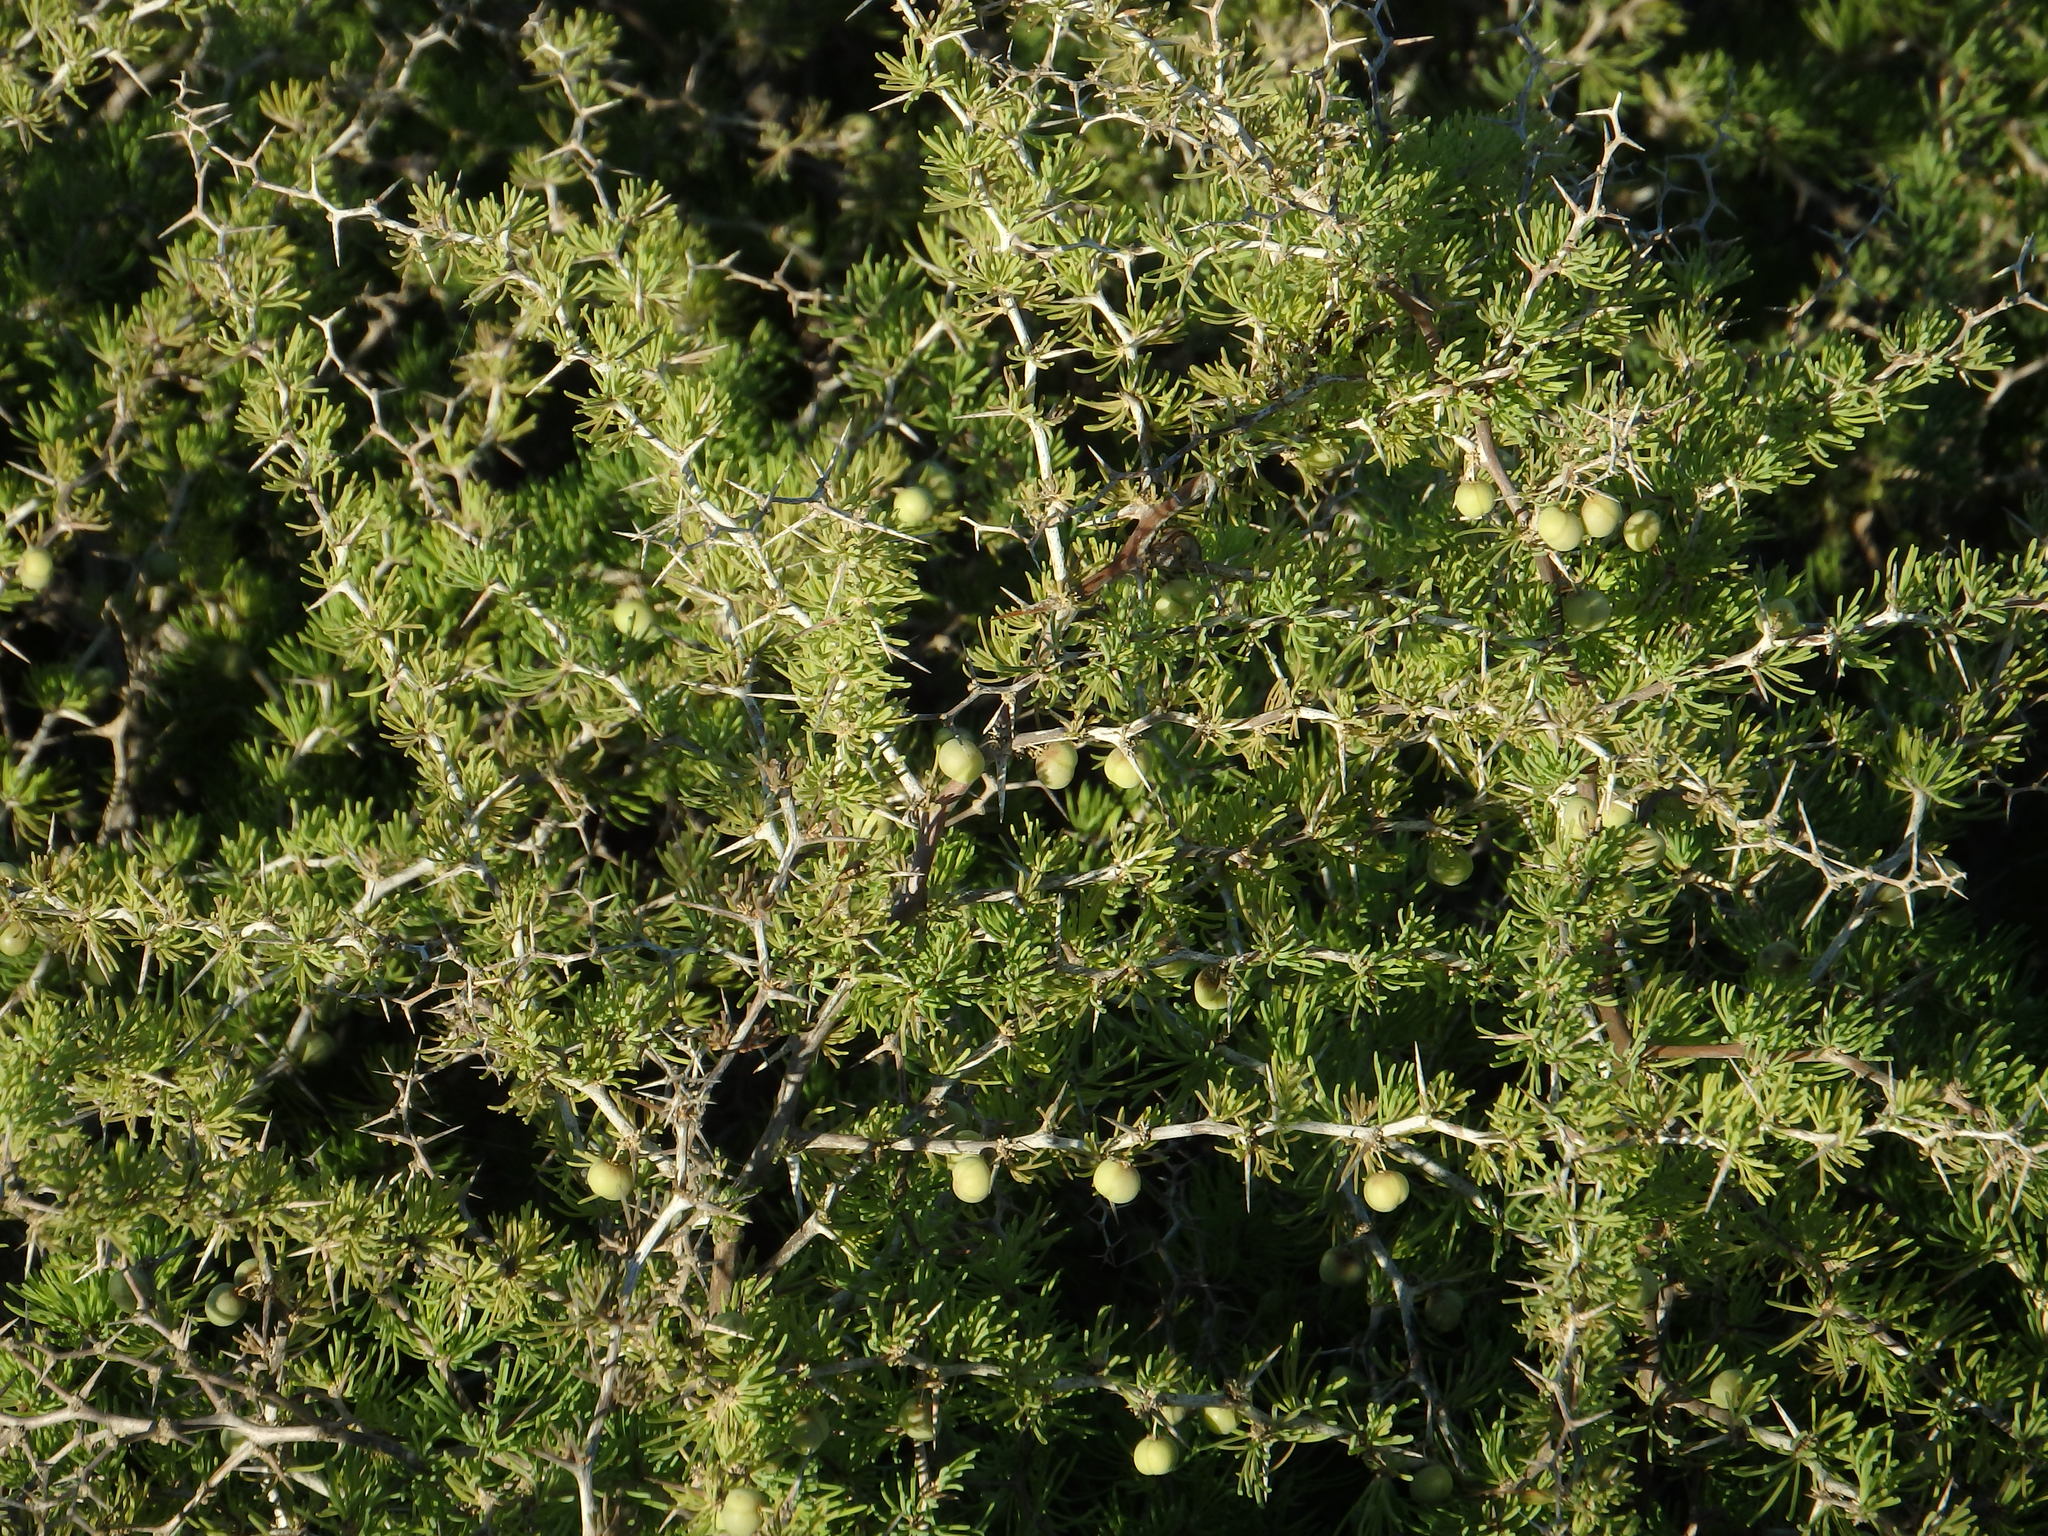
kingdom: Plantae
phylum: Tracheophyta
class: Liliopsida
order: Asparagales
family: Asparagaceae
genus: Asparagus
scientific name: Asparagus albus
